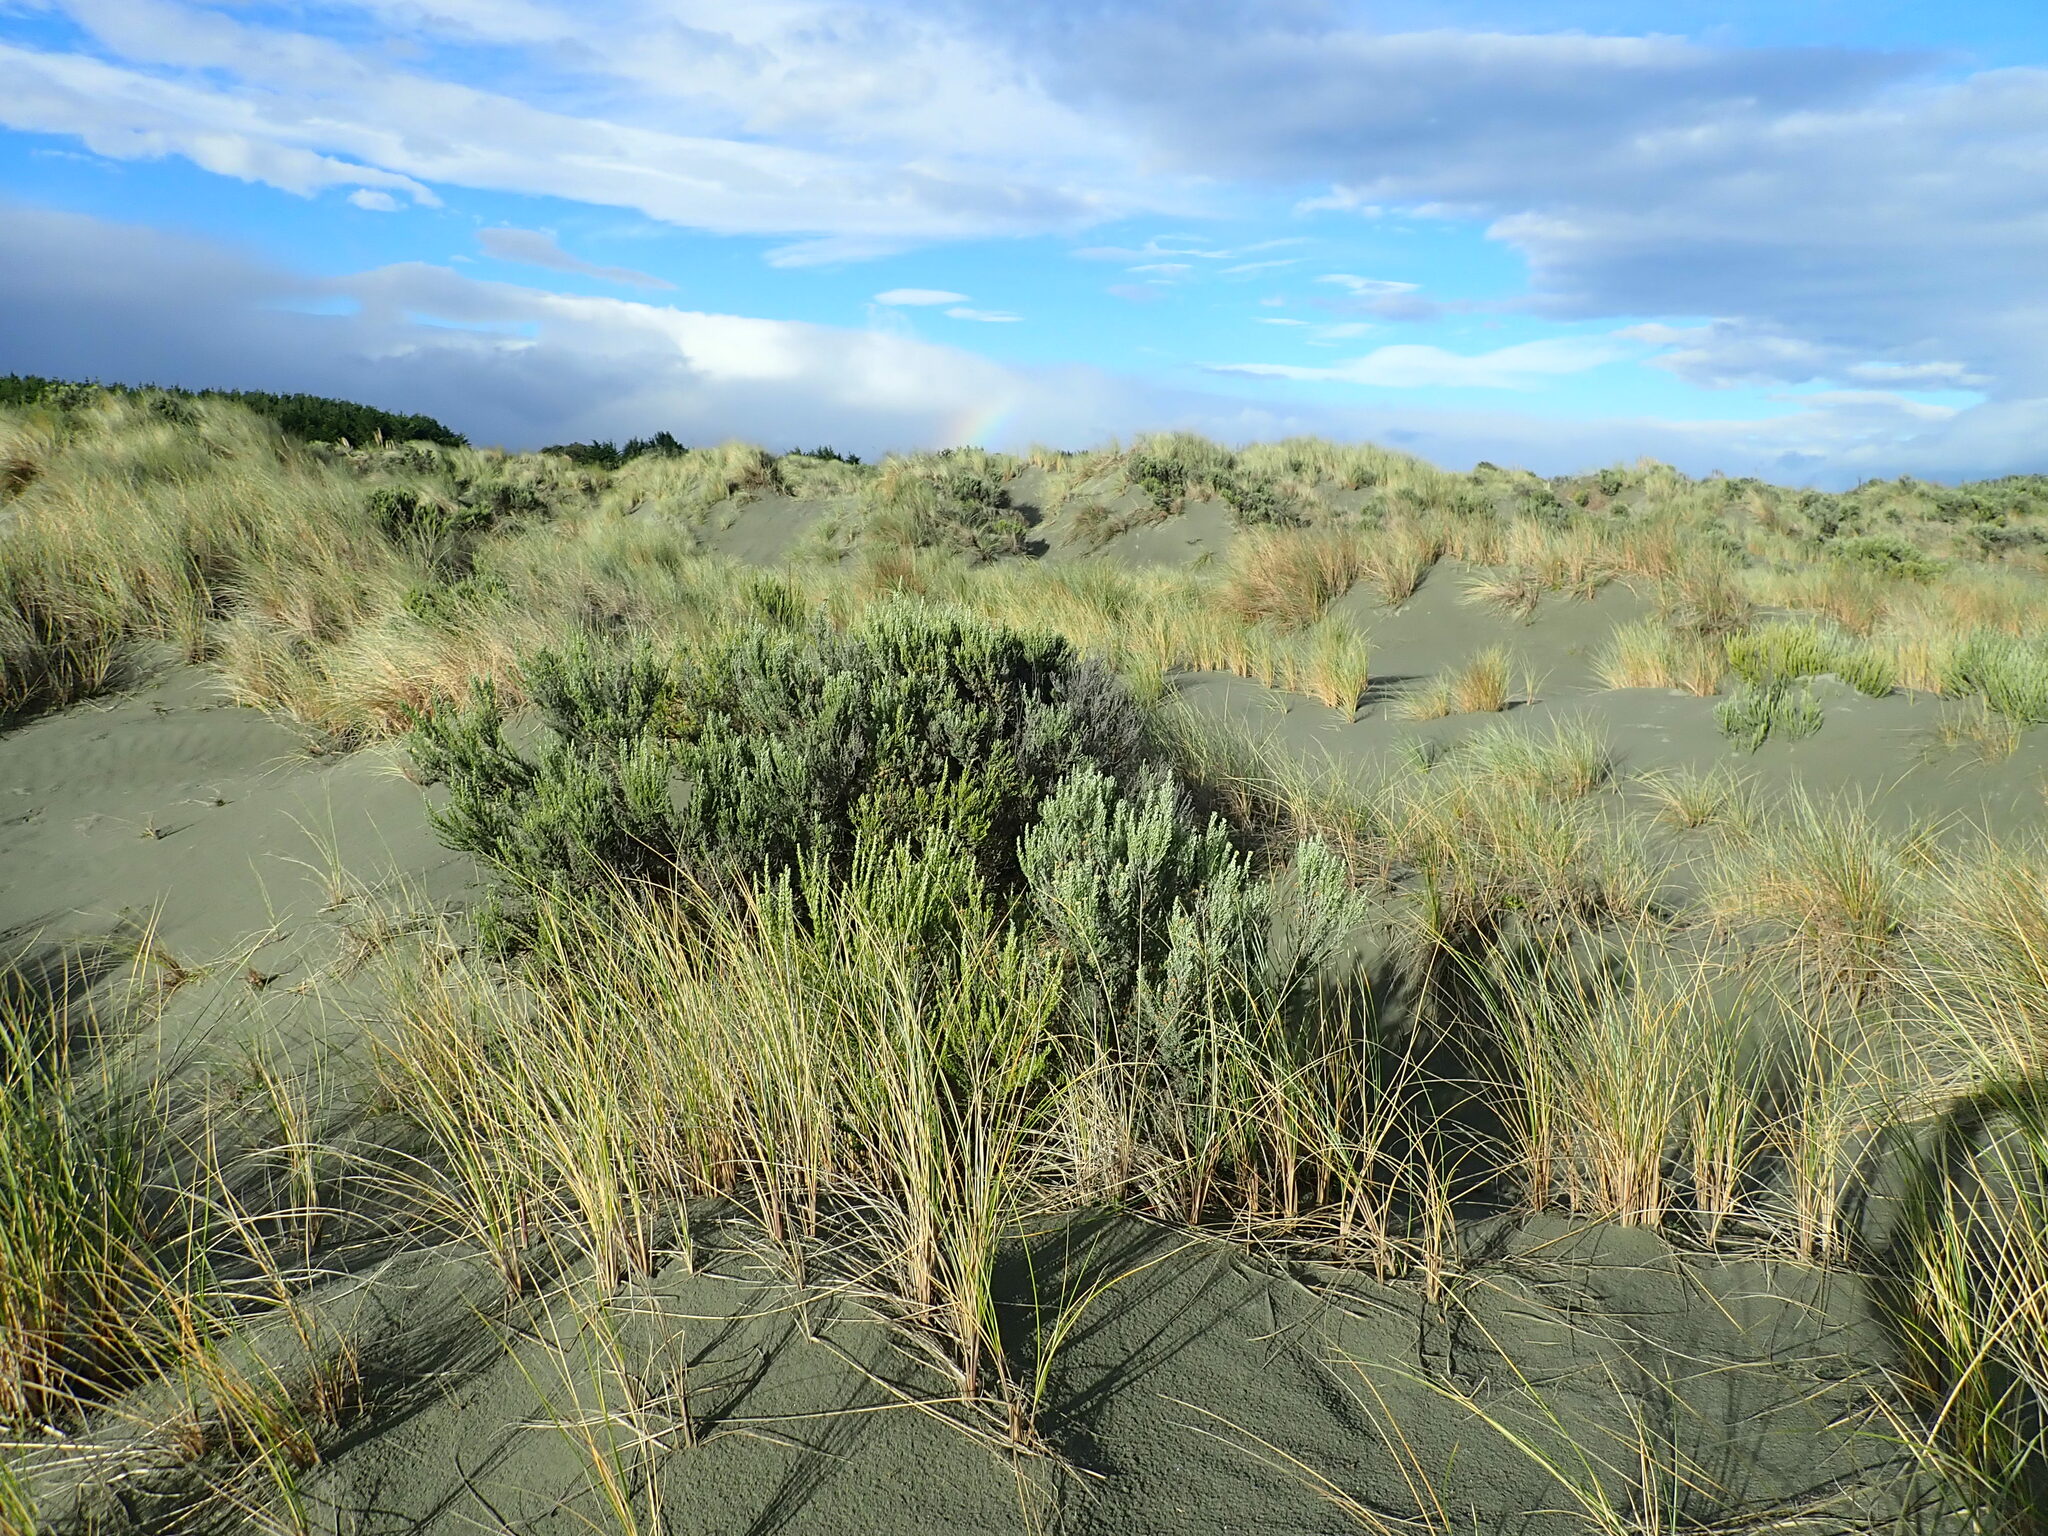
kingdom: Plantae
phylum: Tracheophyta
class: Magnoliopsida
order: Asterales
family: Asteraceae
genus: Ozothamnus
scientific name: Ozothamnus leptophyllus
